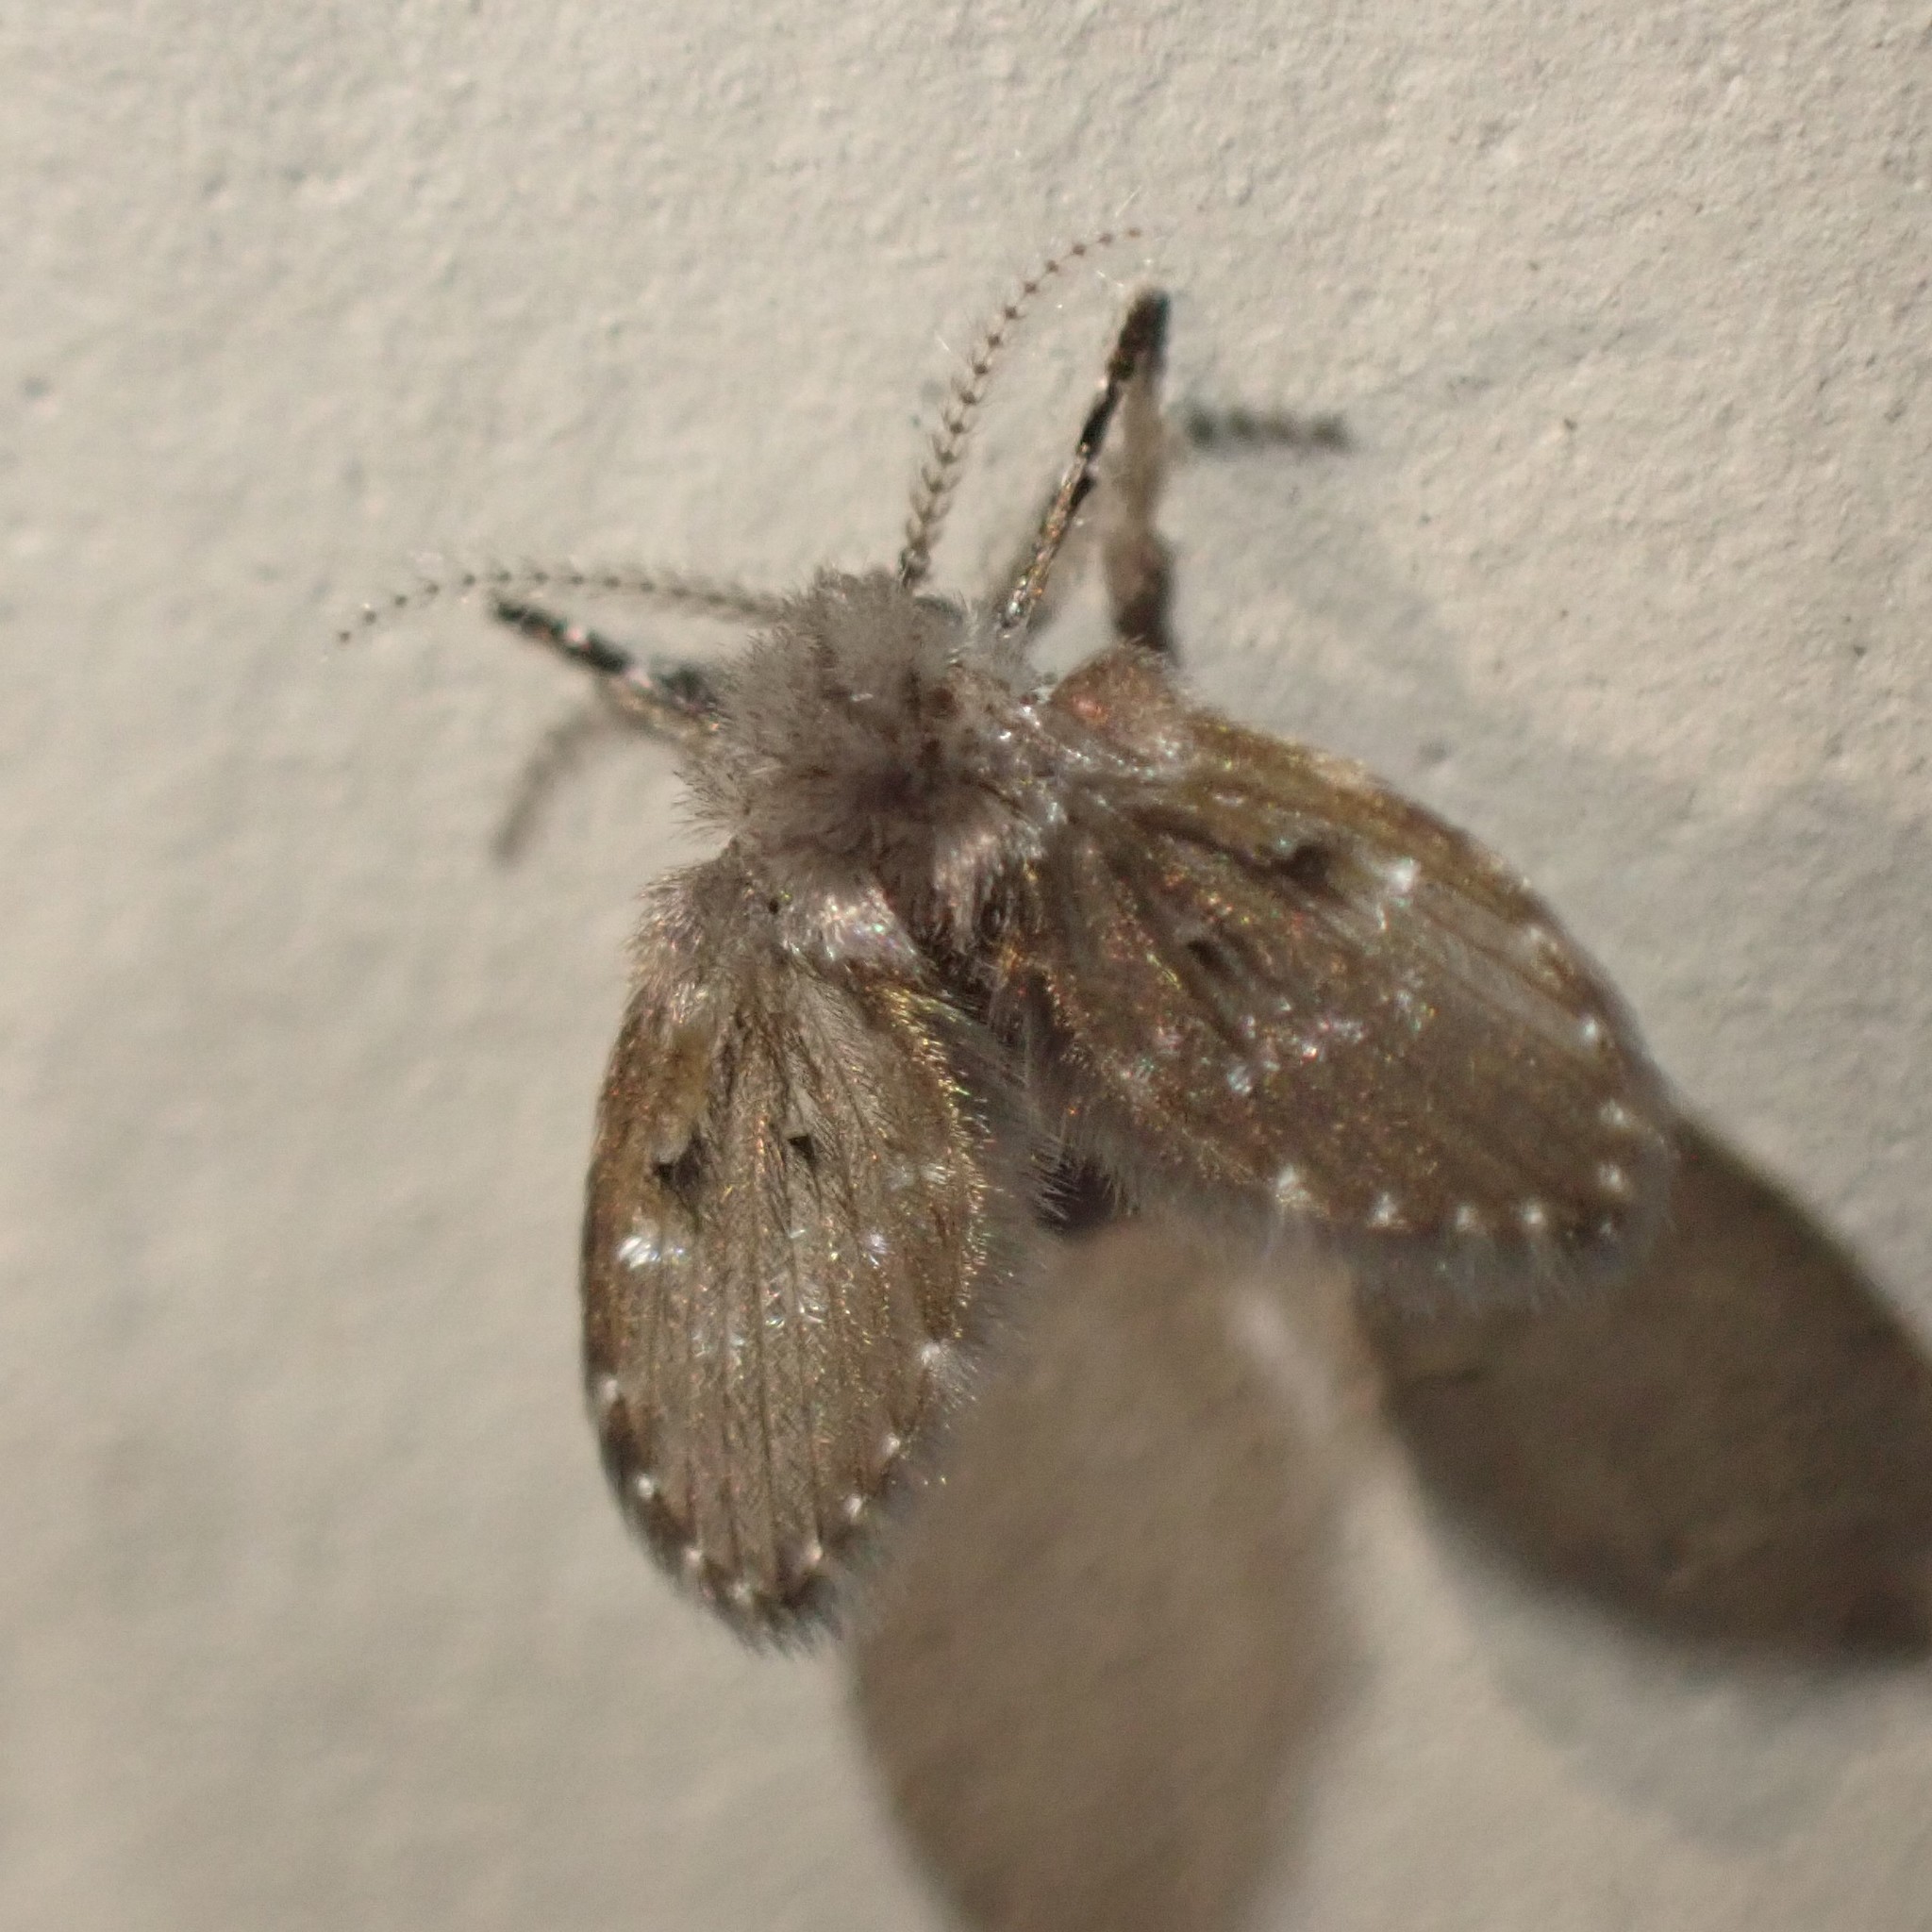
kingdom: Animalia
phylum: Arthropoda
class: Insecta
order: Diptera
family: Psychodidae
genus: Clogmia
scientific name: Clogmia albipunctatus
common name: White-spotted moth fly
